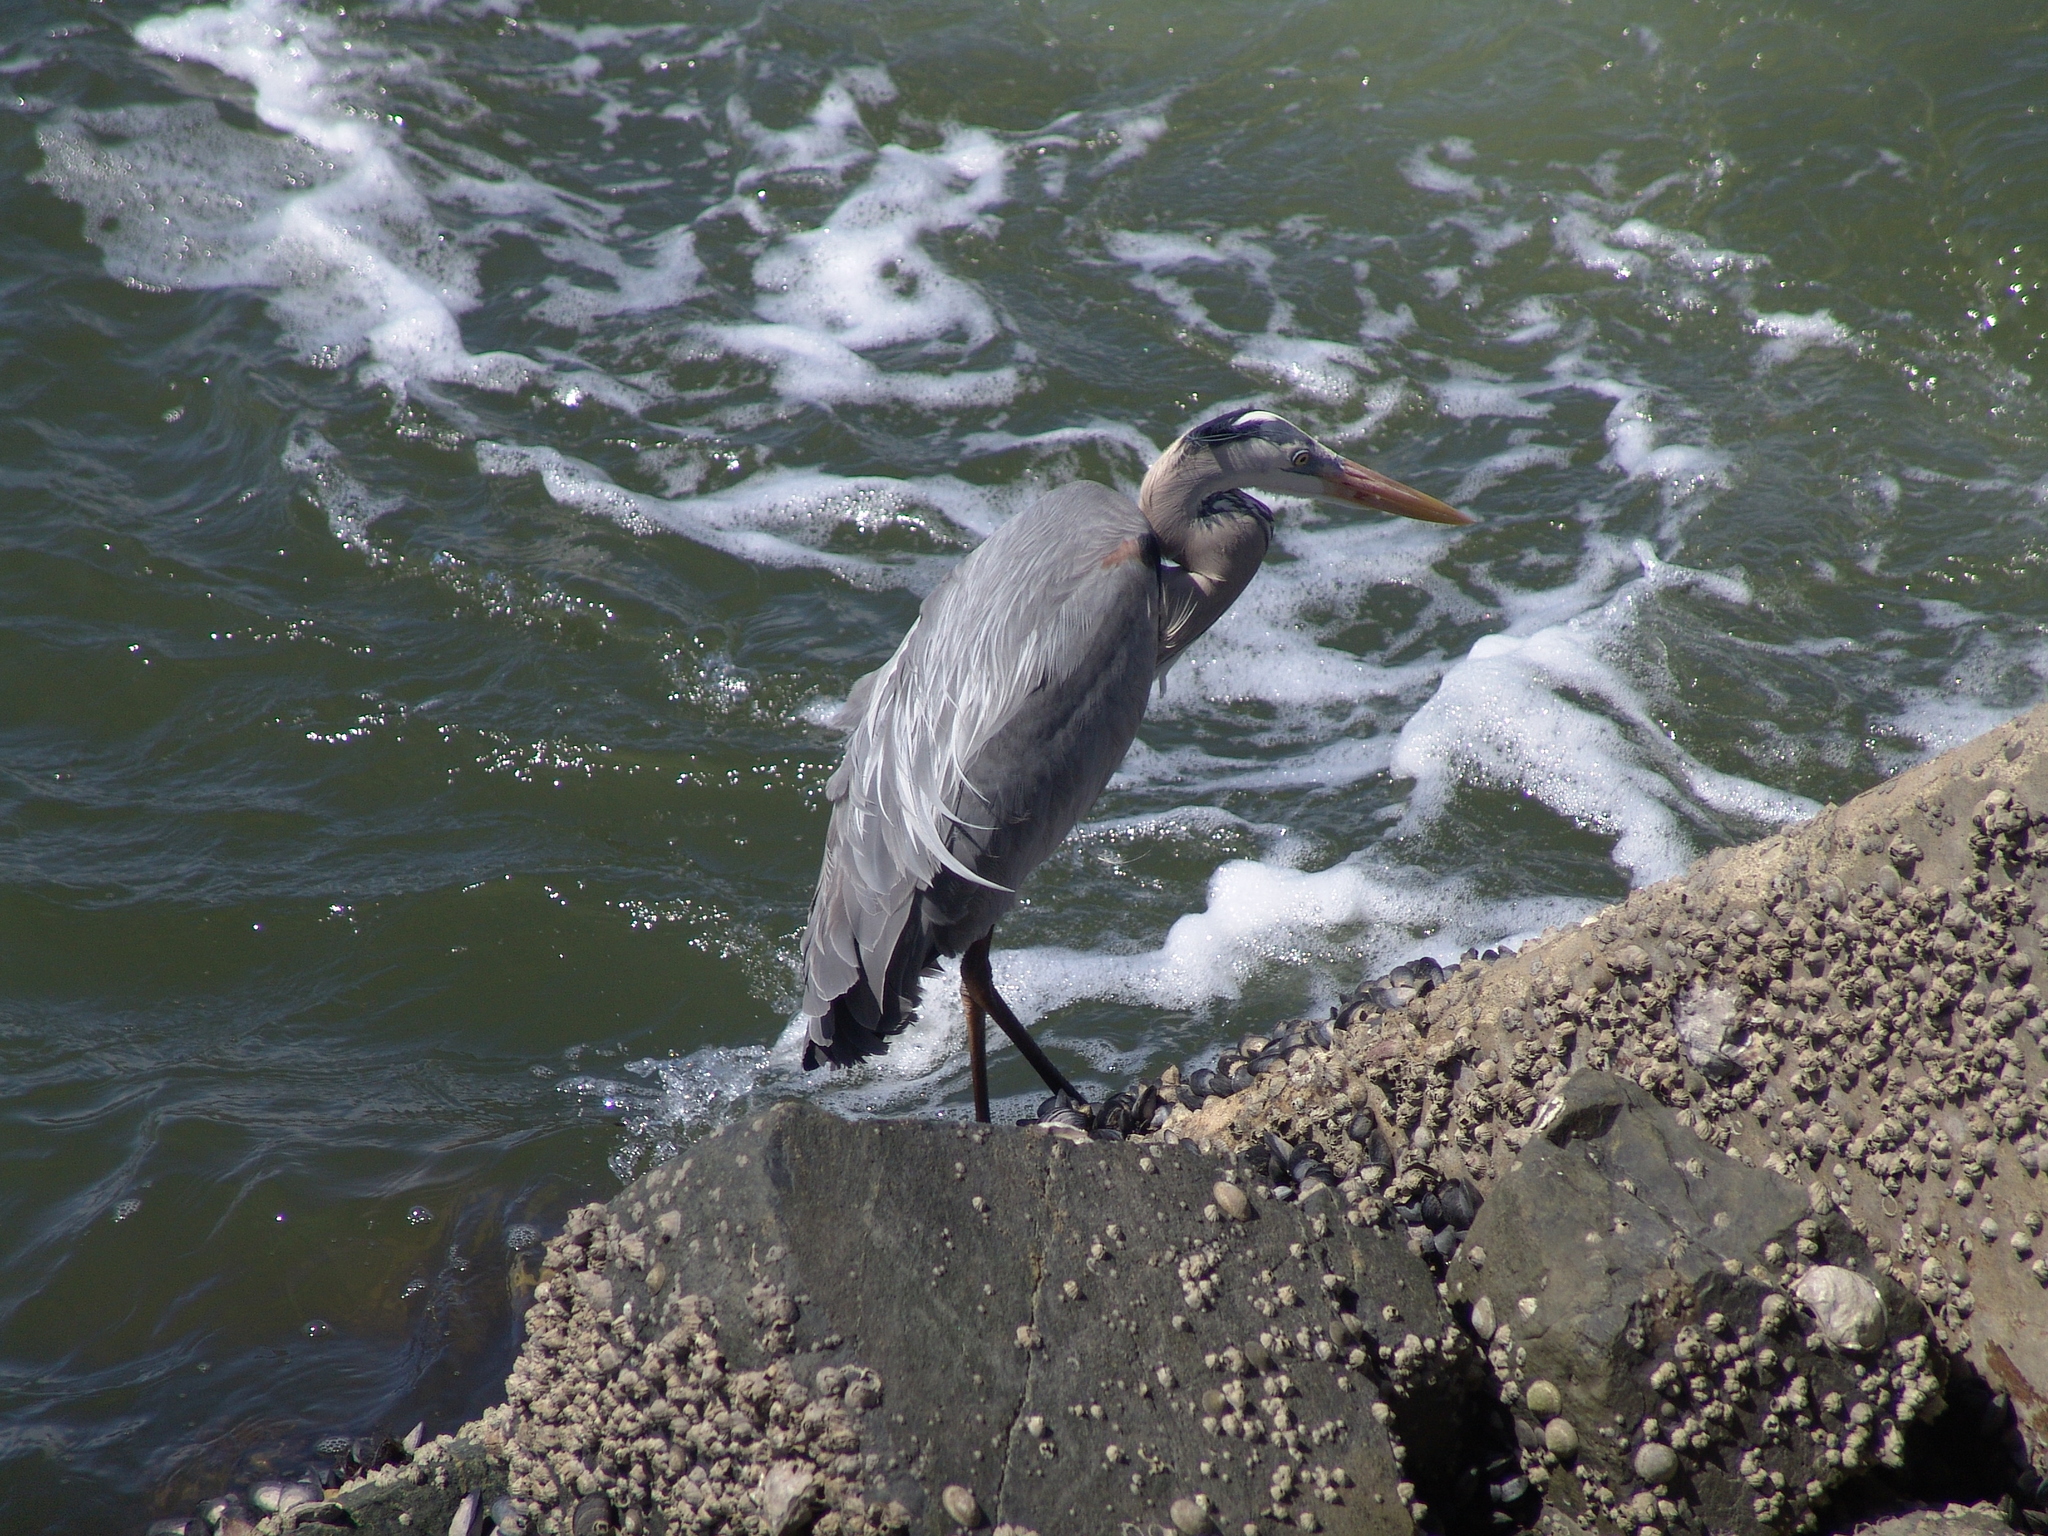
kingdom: Animalia
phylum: Chordata
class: Aves
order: Pelecaniformes
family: Ardeidae
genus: Ardea
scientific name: Ardea herodias
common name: Great blue heron
